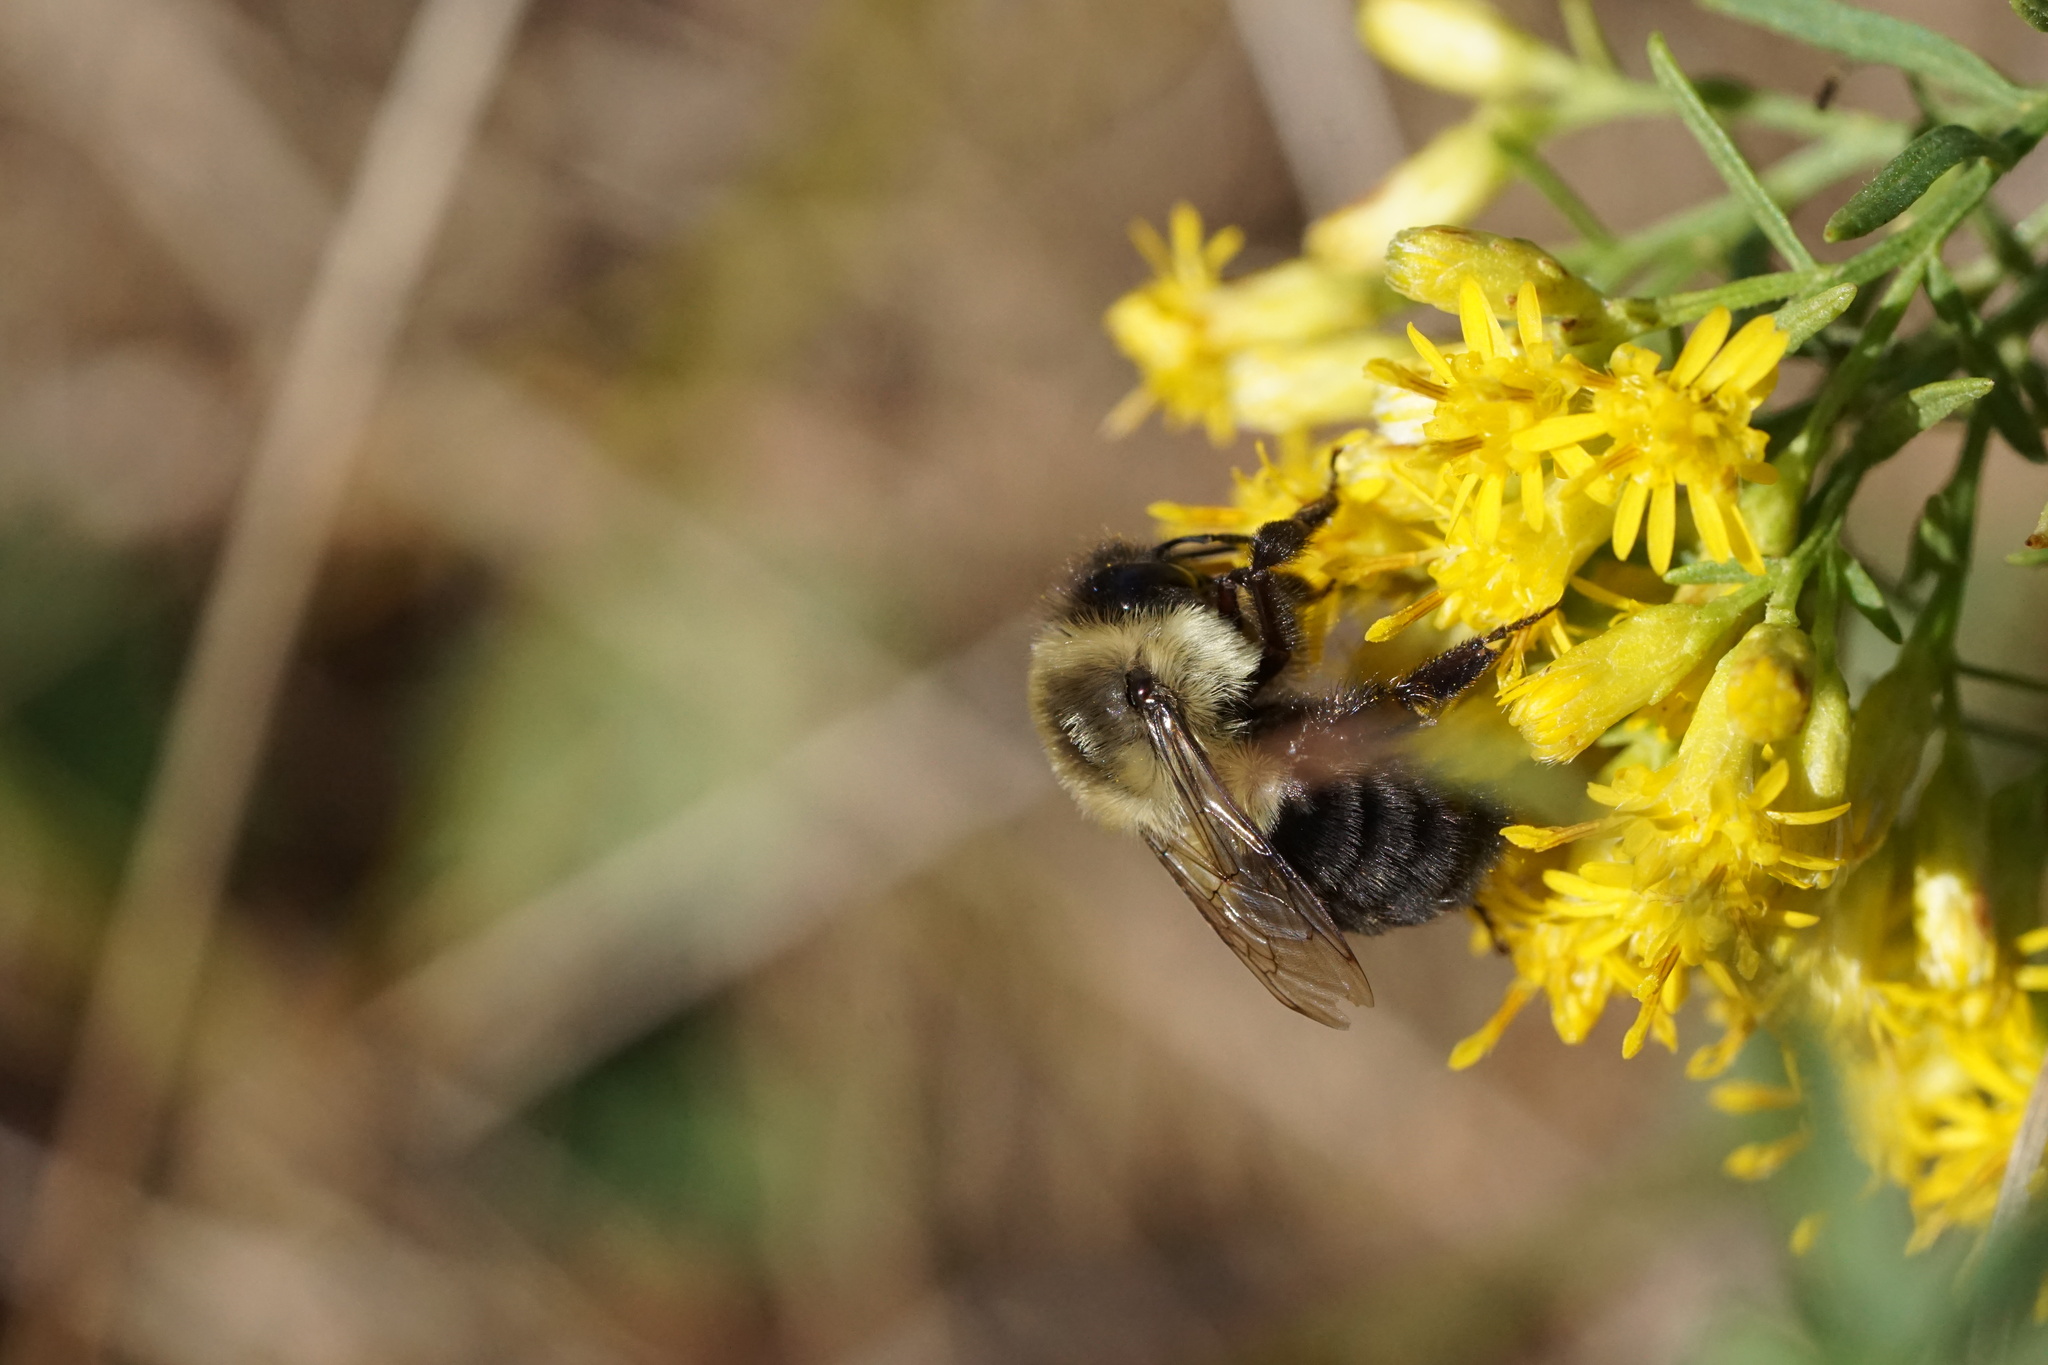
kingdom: Animalia
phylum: Arthropoda
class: Insecta
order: Hymenoptera
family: Apidae
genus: Bombus
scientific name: Bombus impatiens
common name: Common eastern bumble bee
